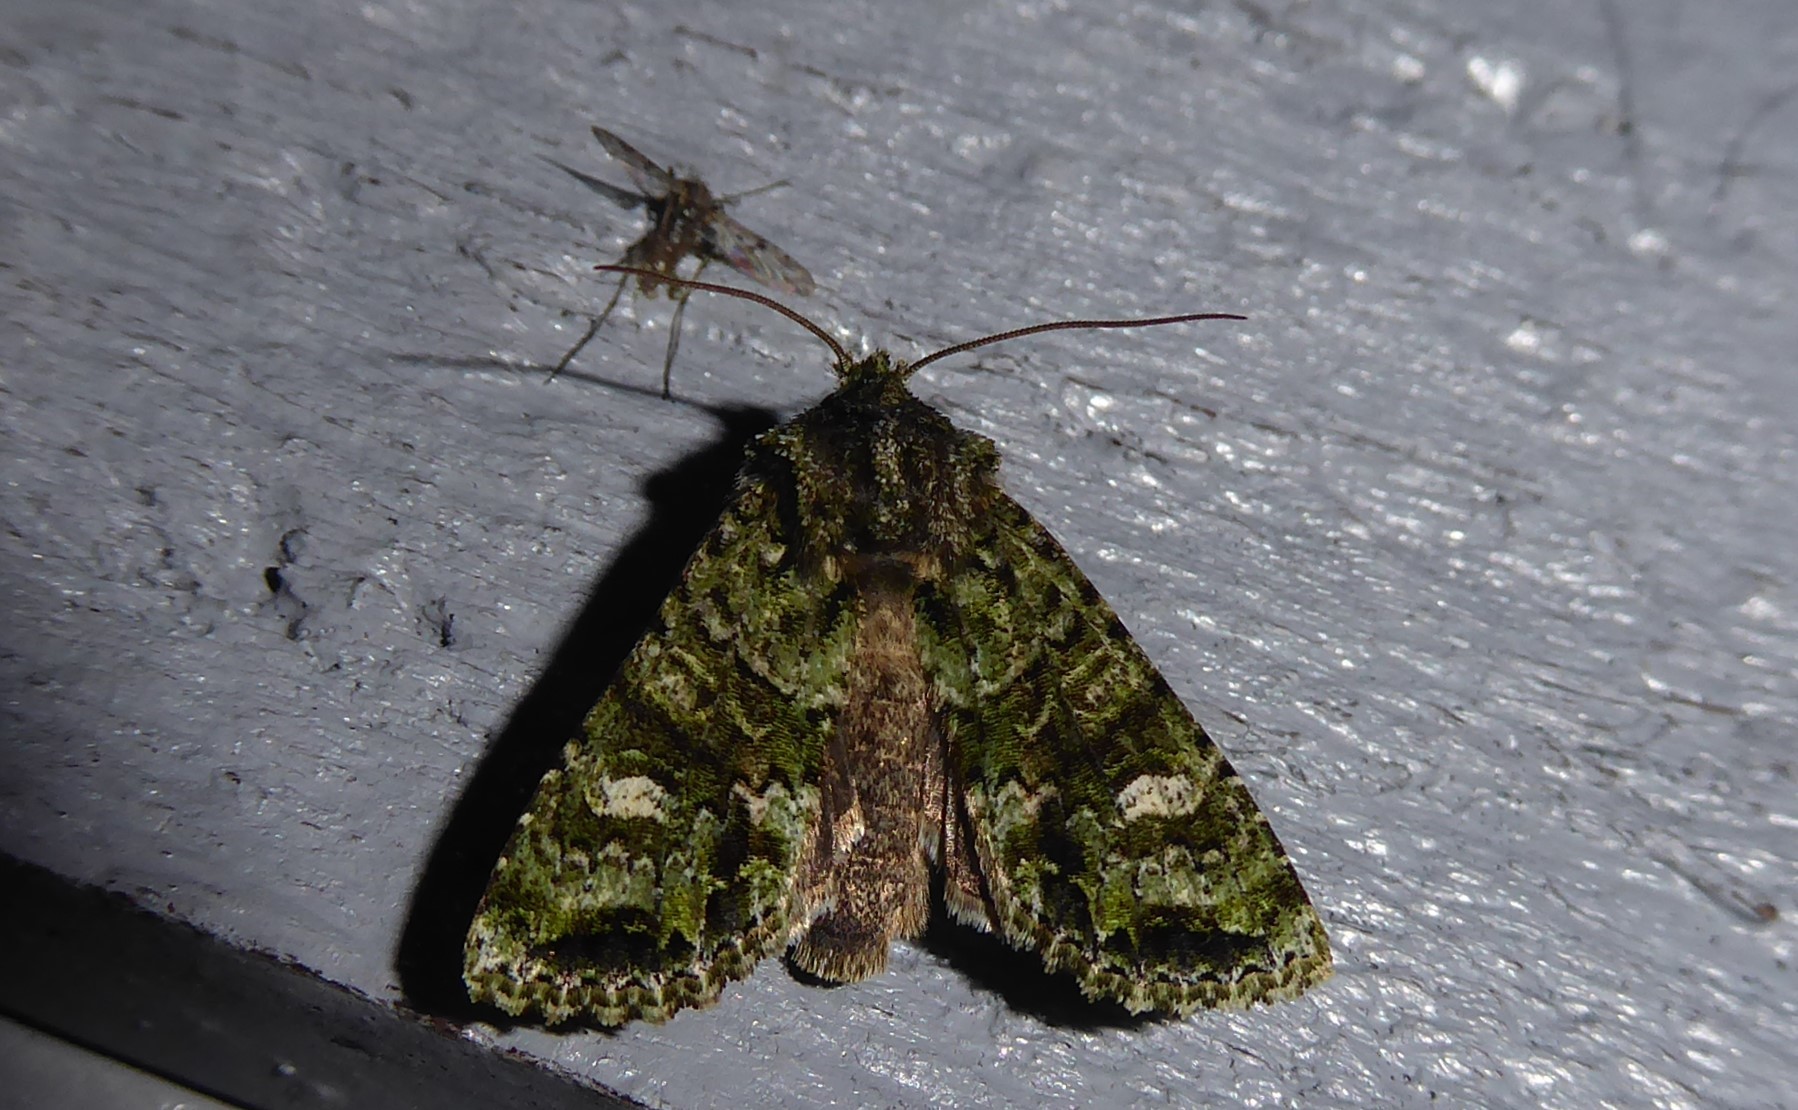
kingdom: Animalia
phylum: Arthropoda
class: Insecta
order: Lepidoptera
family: Noctuidae
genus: Ichneutica
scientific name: Ichneutica
